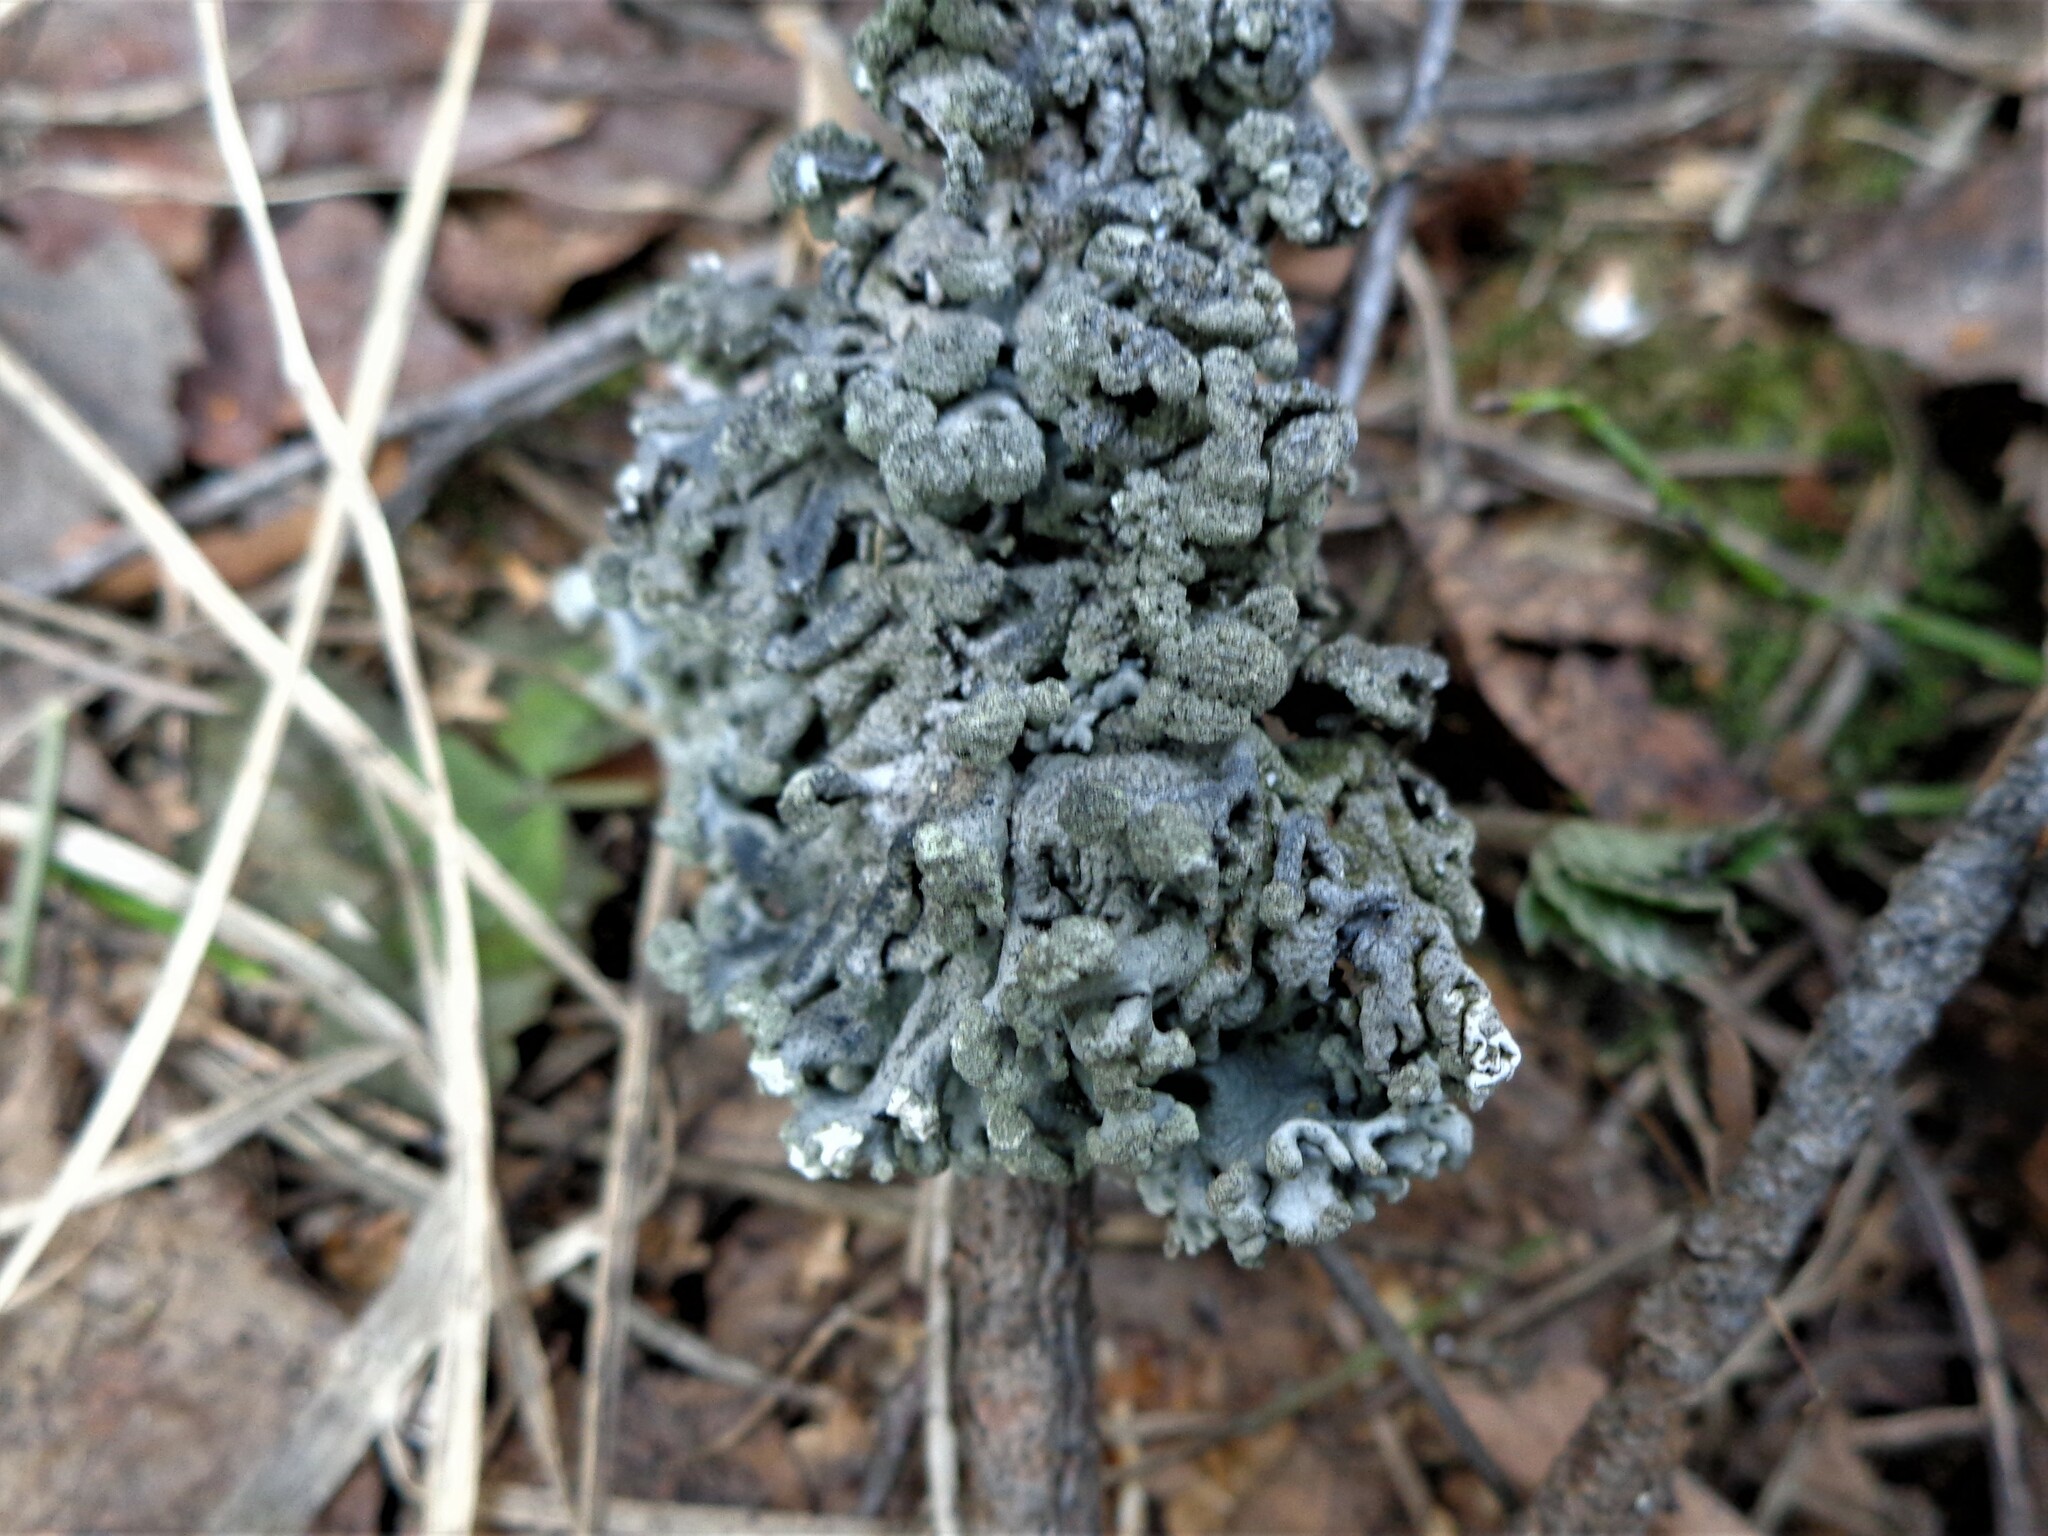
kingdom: Fungi
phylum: Ascomycota
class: Lecanoromycetes
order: Lecanorales
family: Parmeliaceae
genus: Hypogymnia
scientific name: Hypogymnia tubulosa
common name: Powder-headed tube lichen
